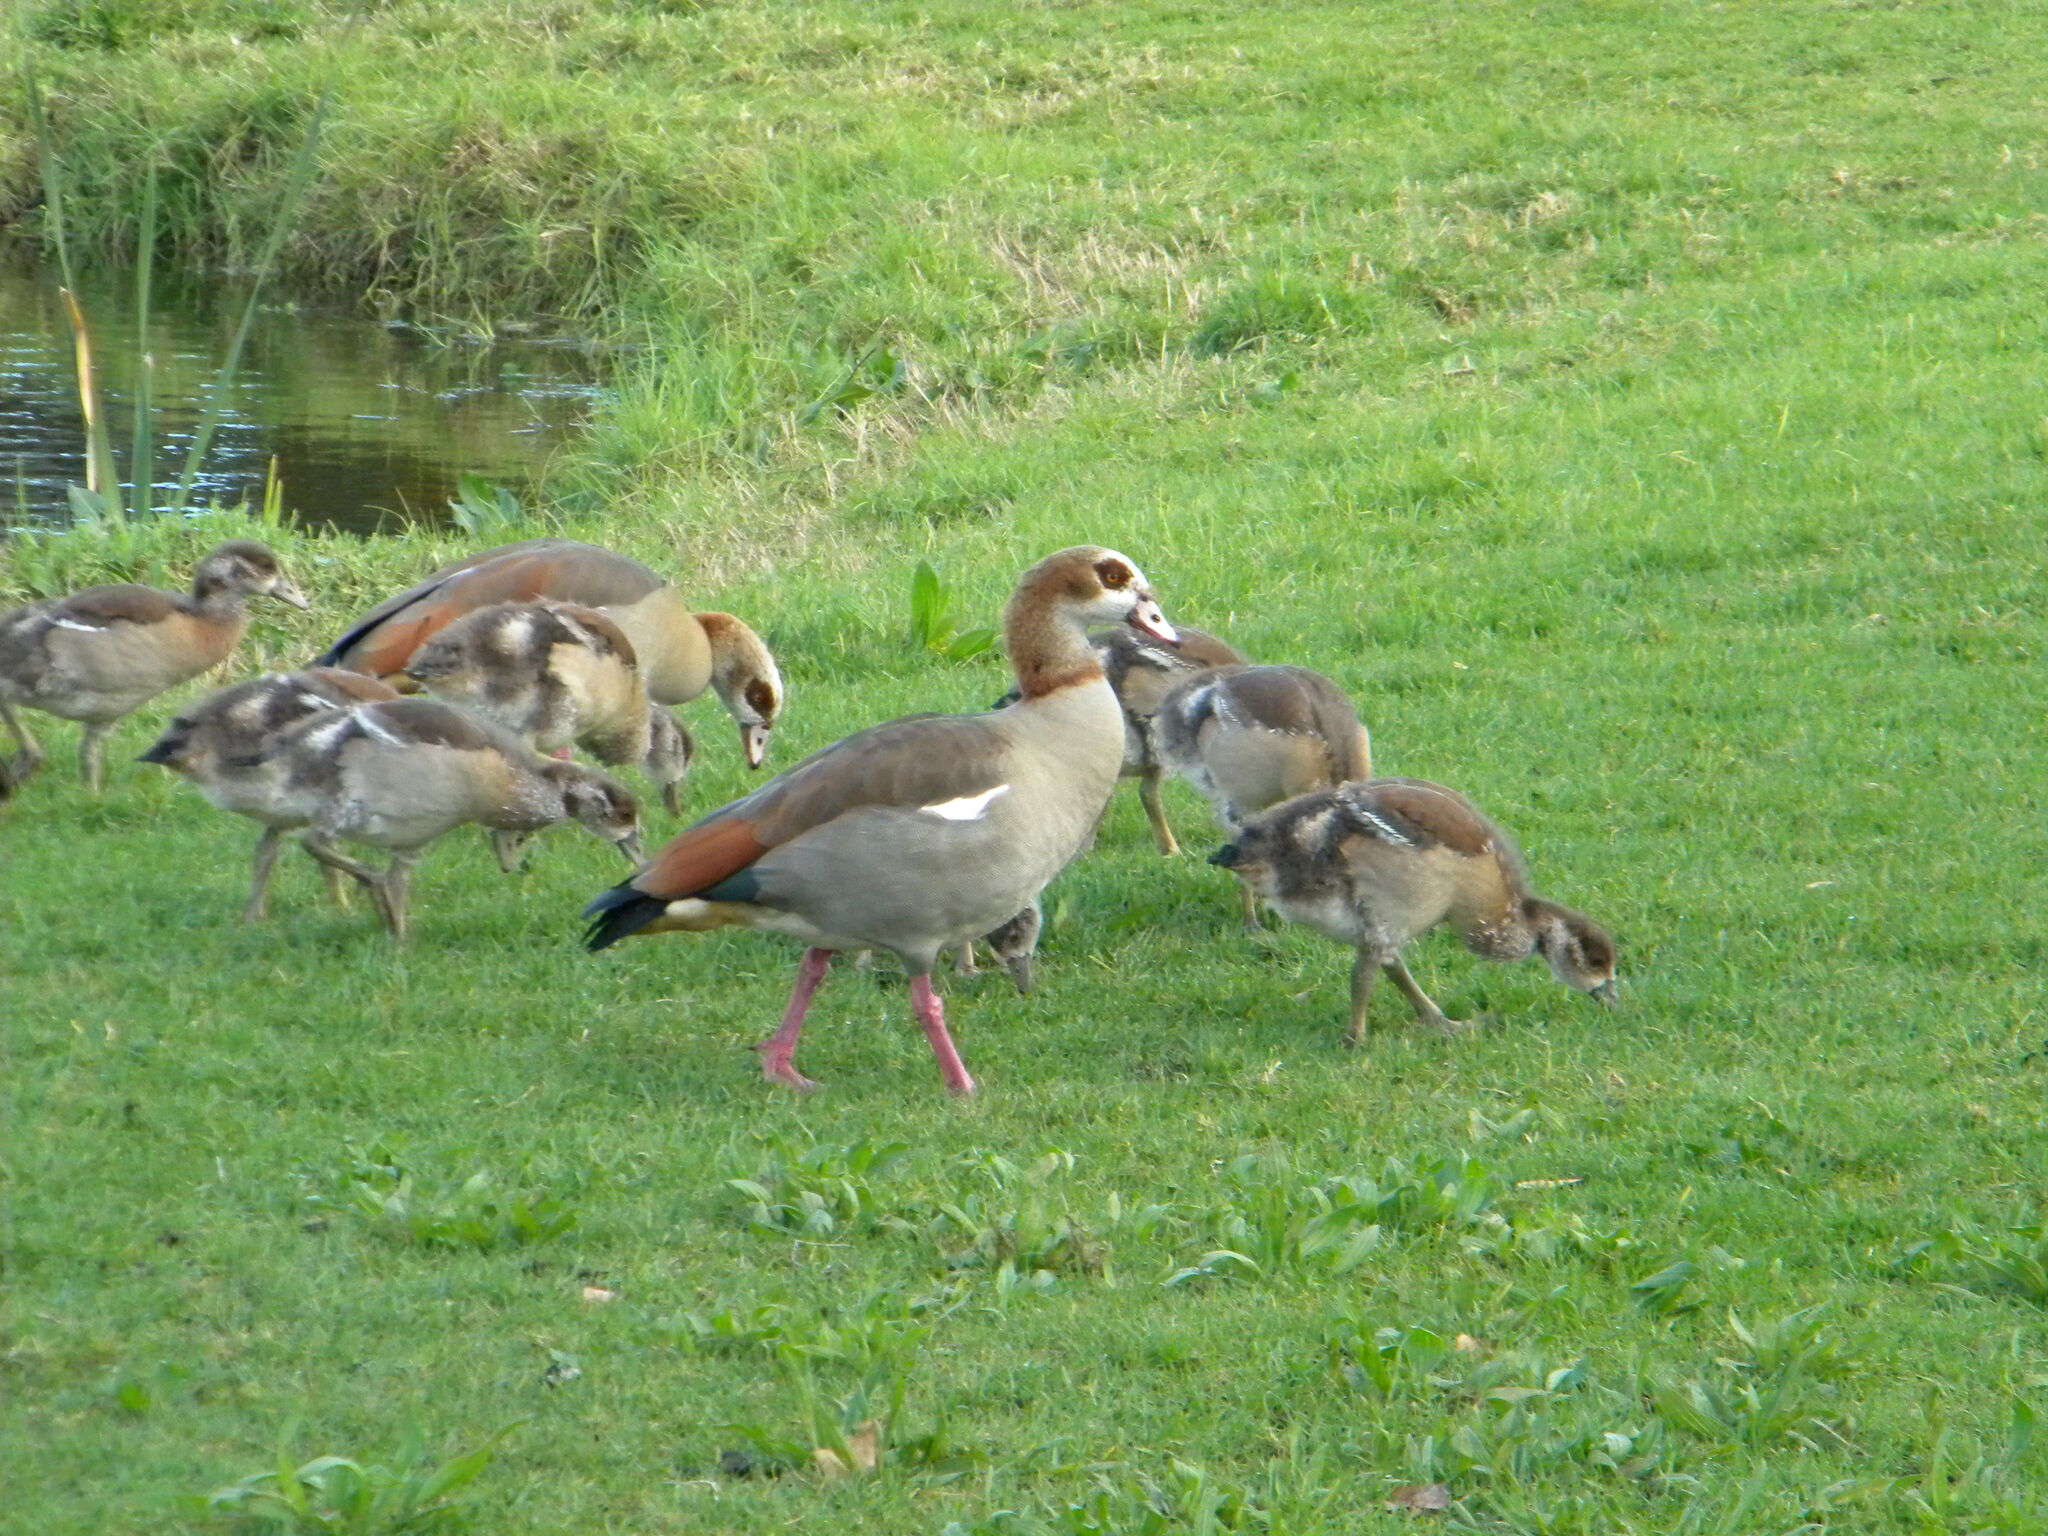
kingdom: Animalia
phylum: Chordata
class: Aves
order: Anseriformes
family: Anatidae
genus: Alopochen
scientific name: Alopochen aegyptiaca
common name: Egyptian goose
